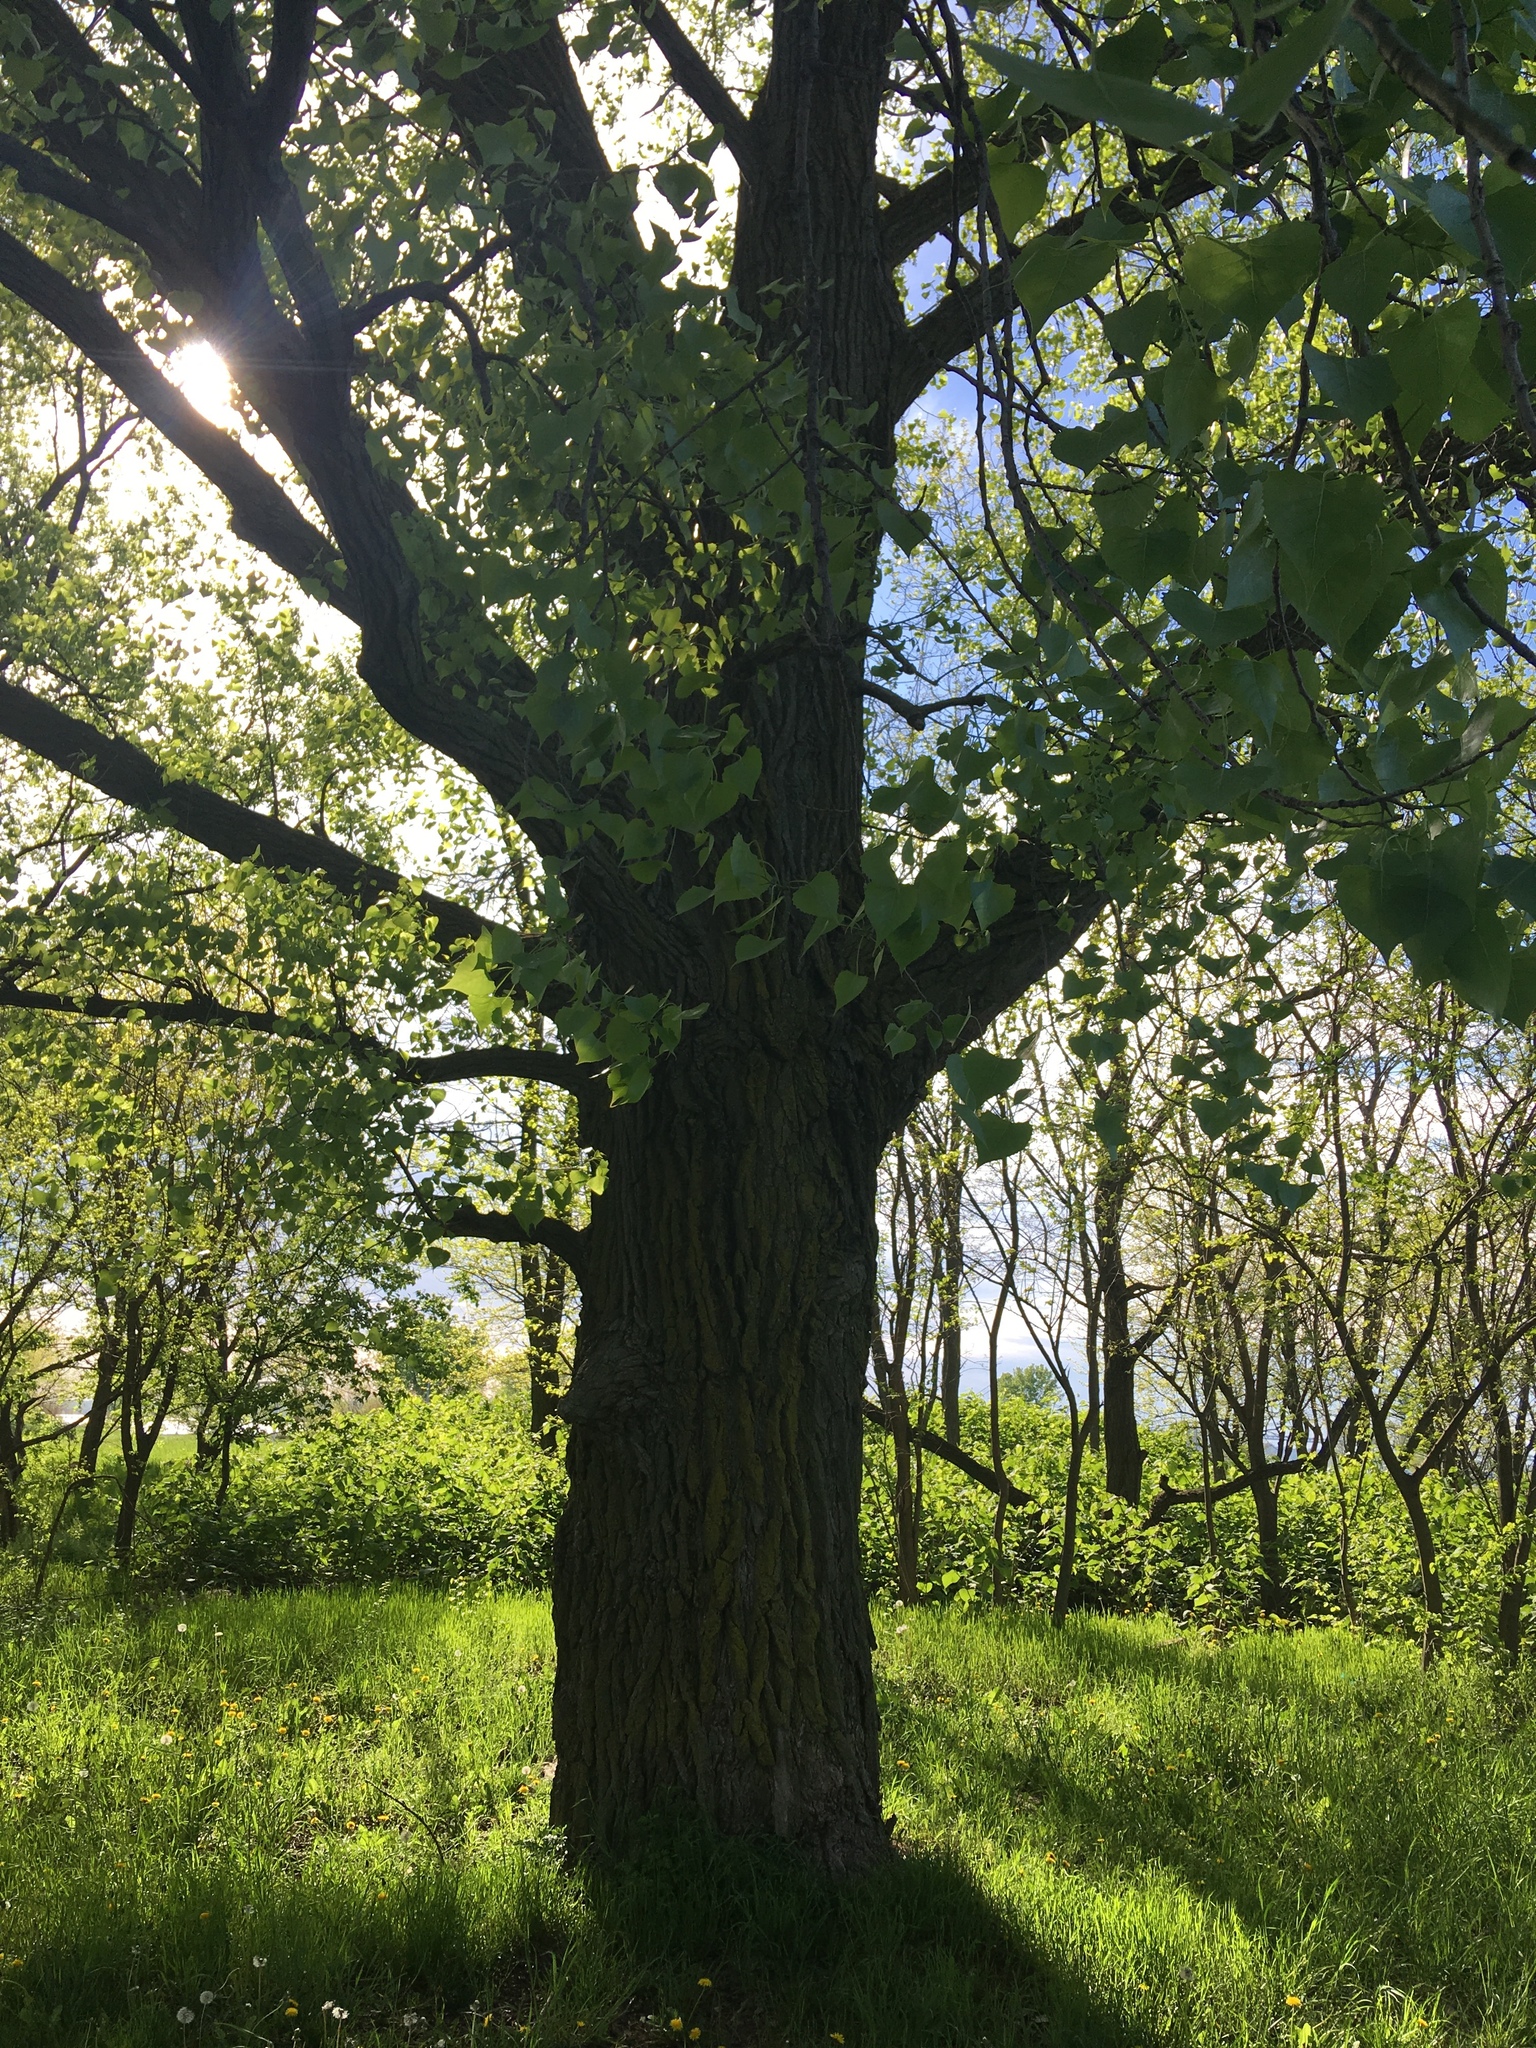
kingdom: Plantae
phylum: Tracheophyta
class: Magnoliopsida
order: Malpighiales
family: Salicaceae
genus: Populus
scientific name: Populus deltoides
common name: Eastern cottonwood
